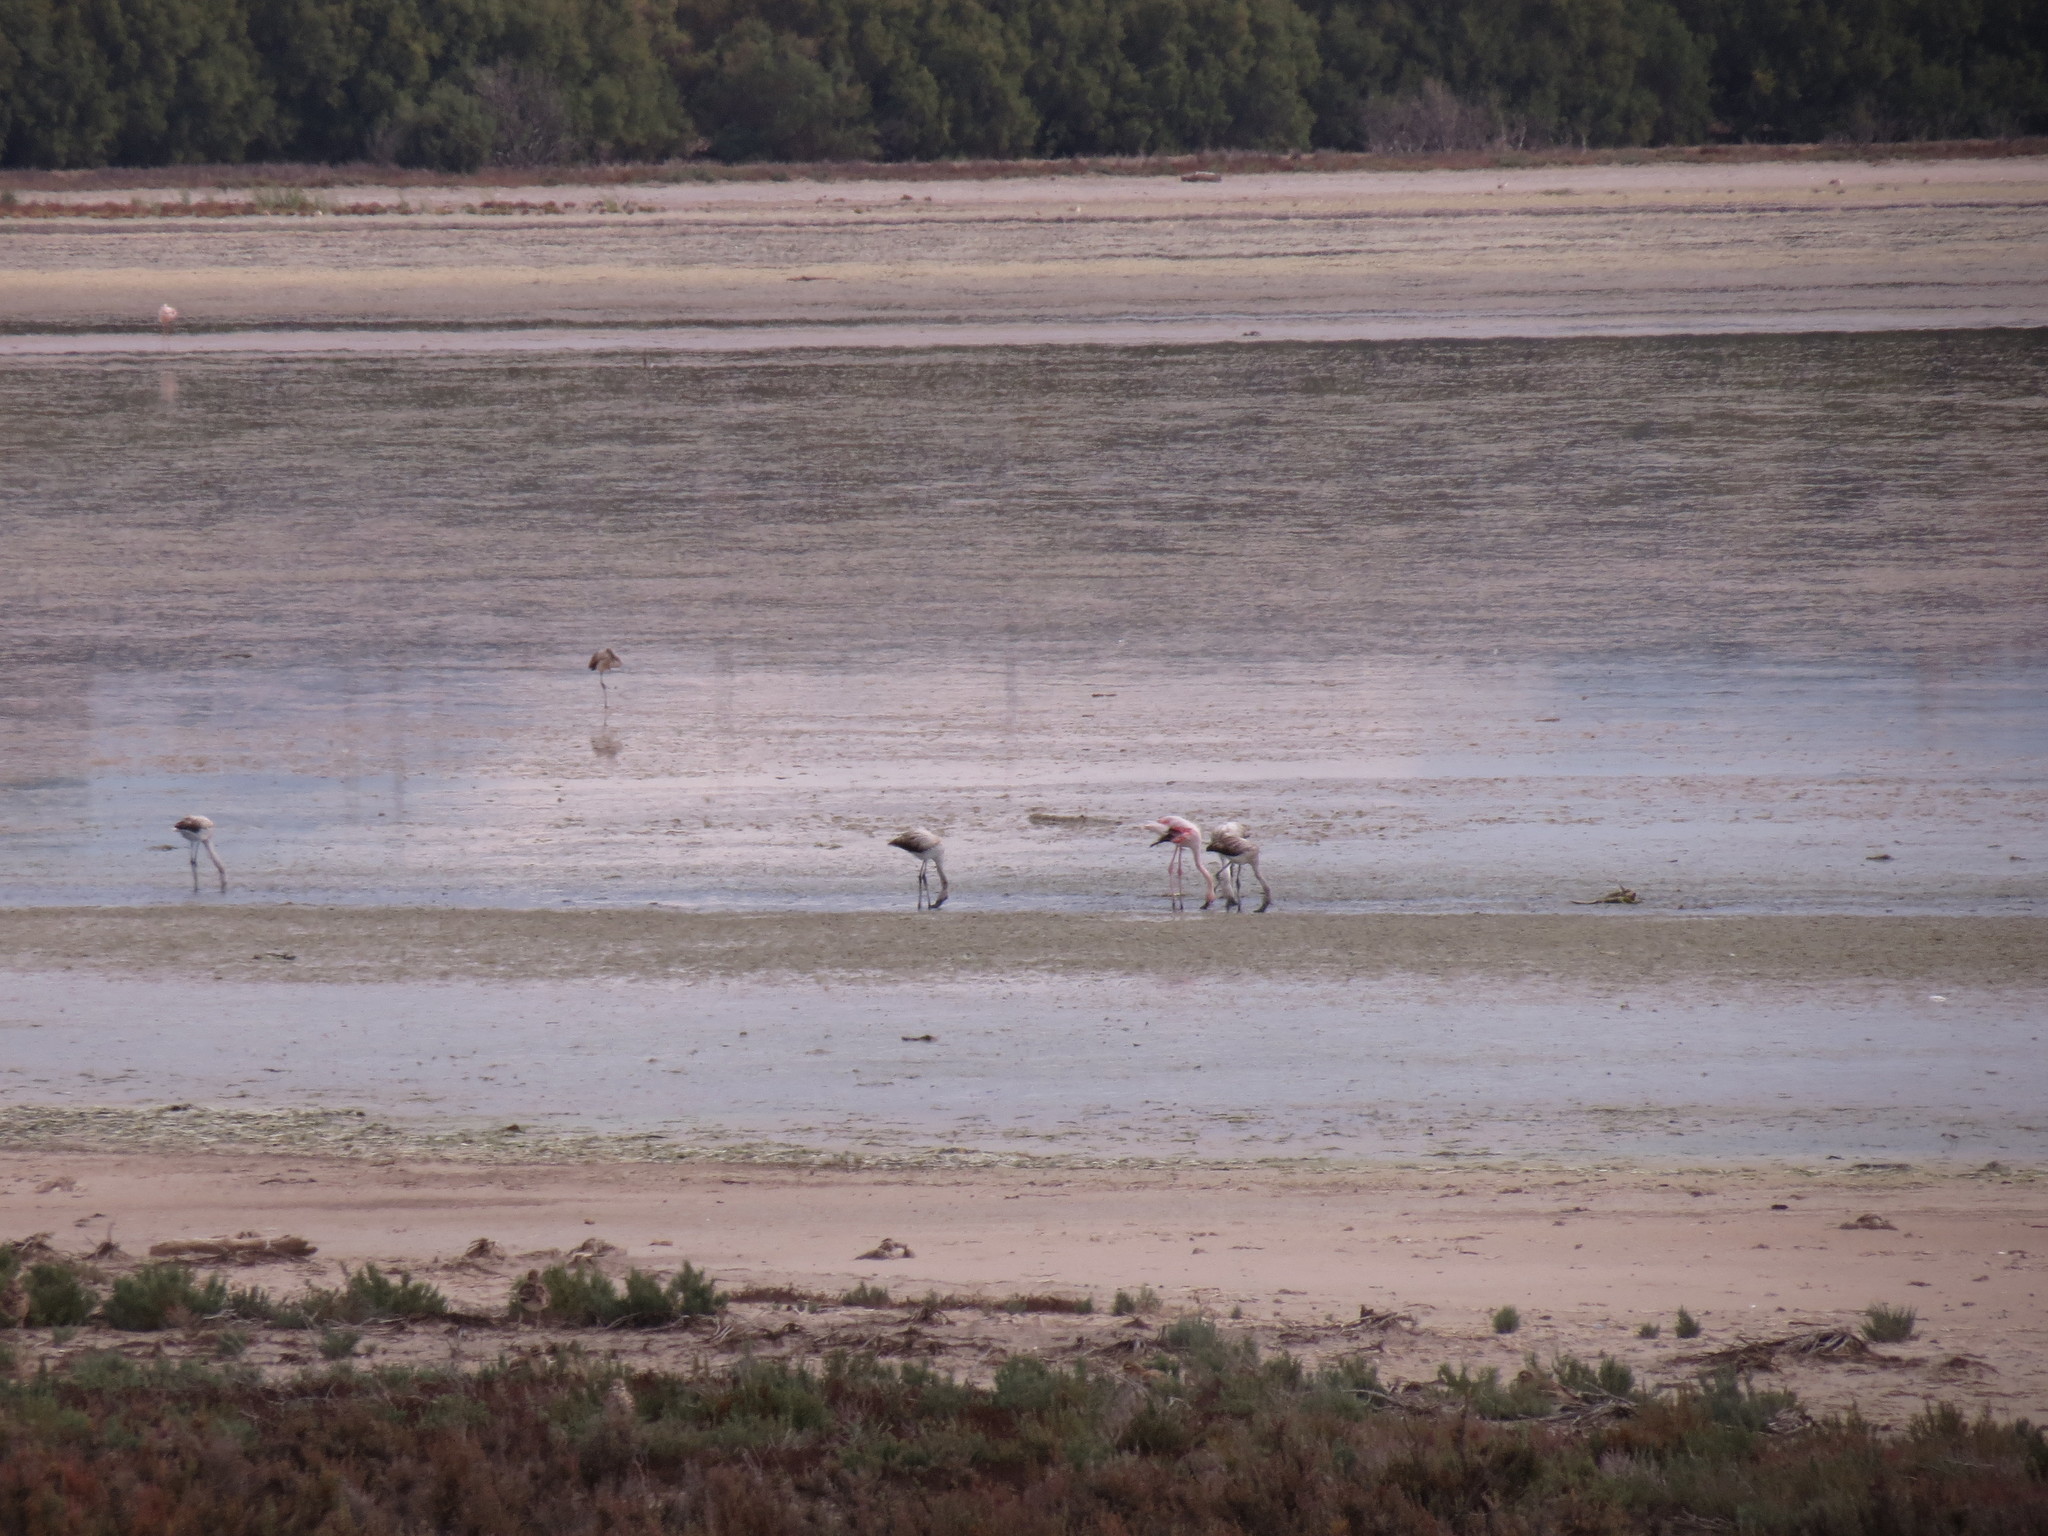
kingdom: Animalia
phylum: Chordata
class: Aves
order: Phoenicopteriformes
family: Phoenicopteridae
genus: Phoenicopterus
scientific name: Phoenicopterus roseus
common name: Greater flamingo
